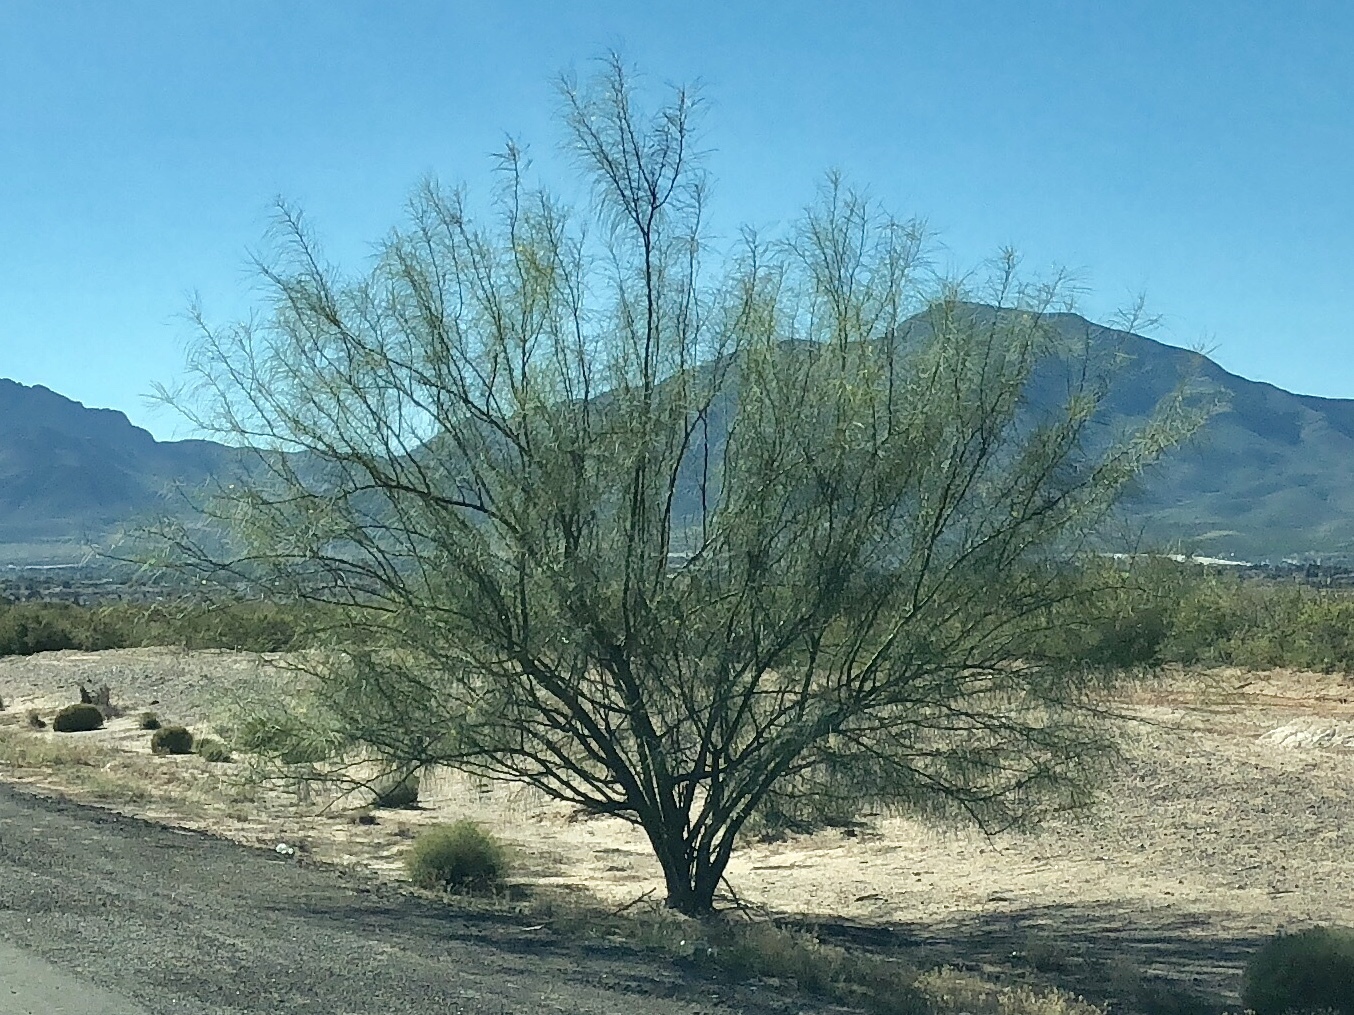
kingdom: Plantae
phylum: Tracheophyta
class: Magnoliopsida
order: Fabales
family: Fabaceae
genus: Parkinsonia
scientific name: Parkinsonia aculeata
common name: Jerusalem thorn
